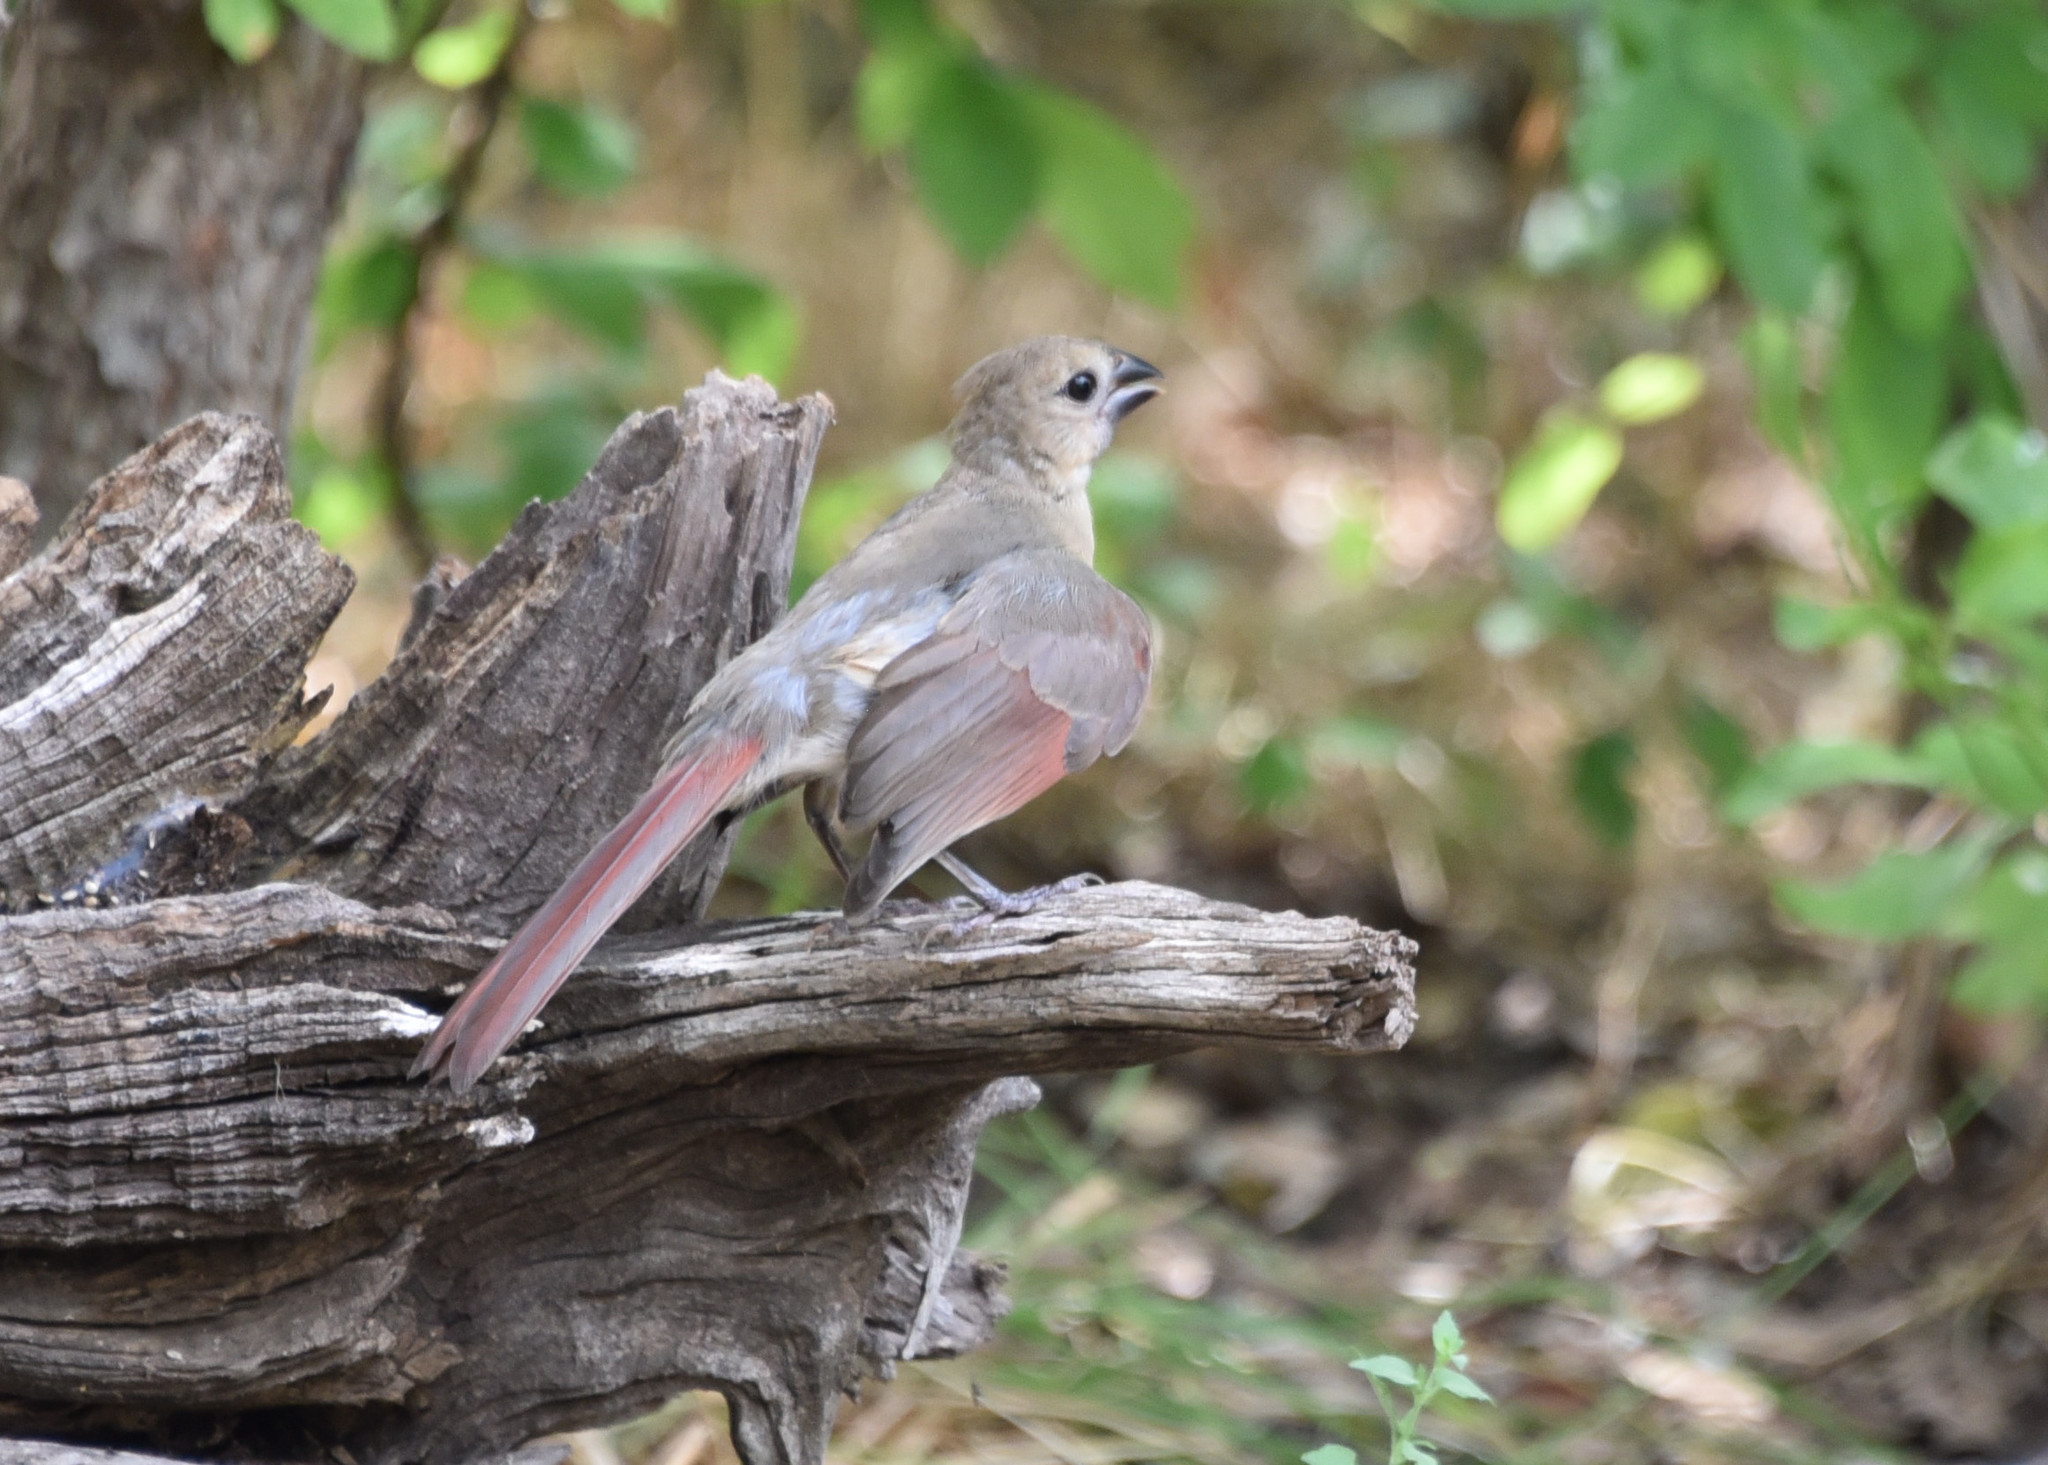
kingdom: Animalia
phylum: Chordata
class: Aves
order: Passeriformes
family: Cardinalidae
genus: Cardinalis
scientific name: Cardinalis cardinalis
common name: Northern cardinal
